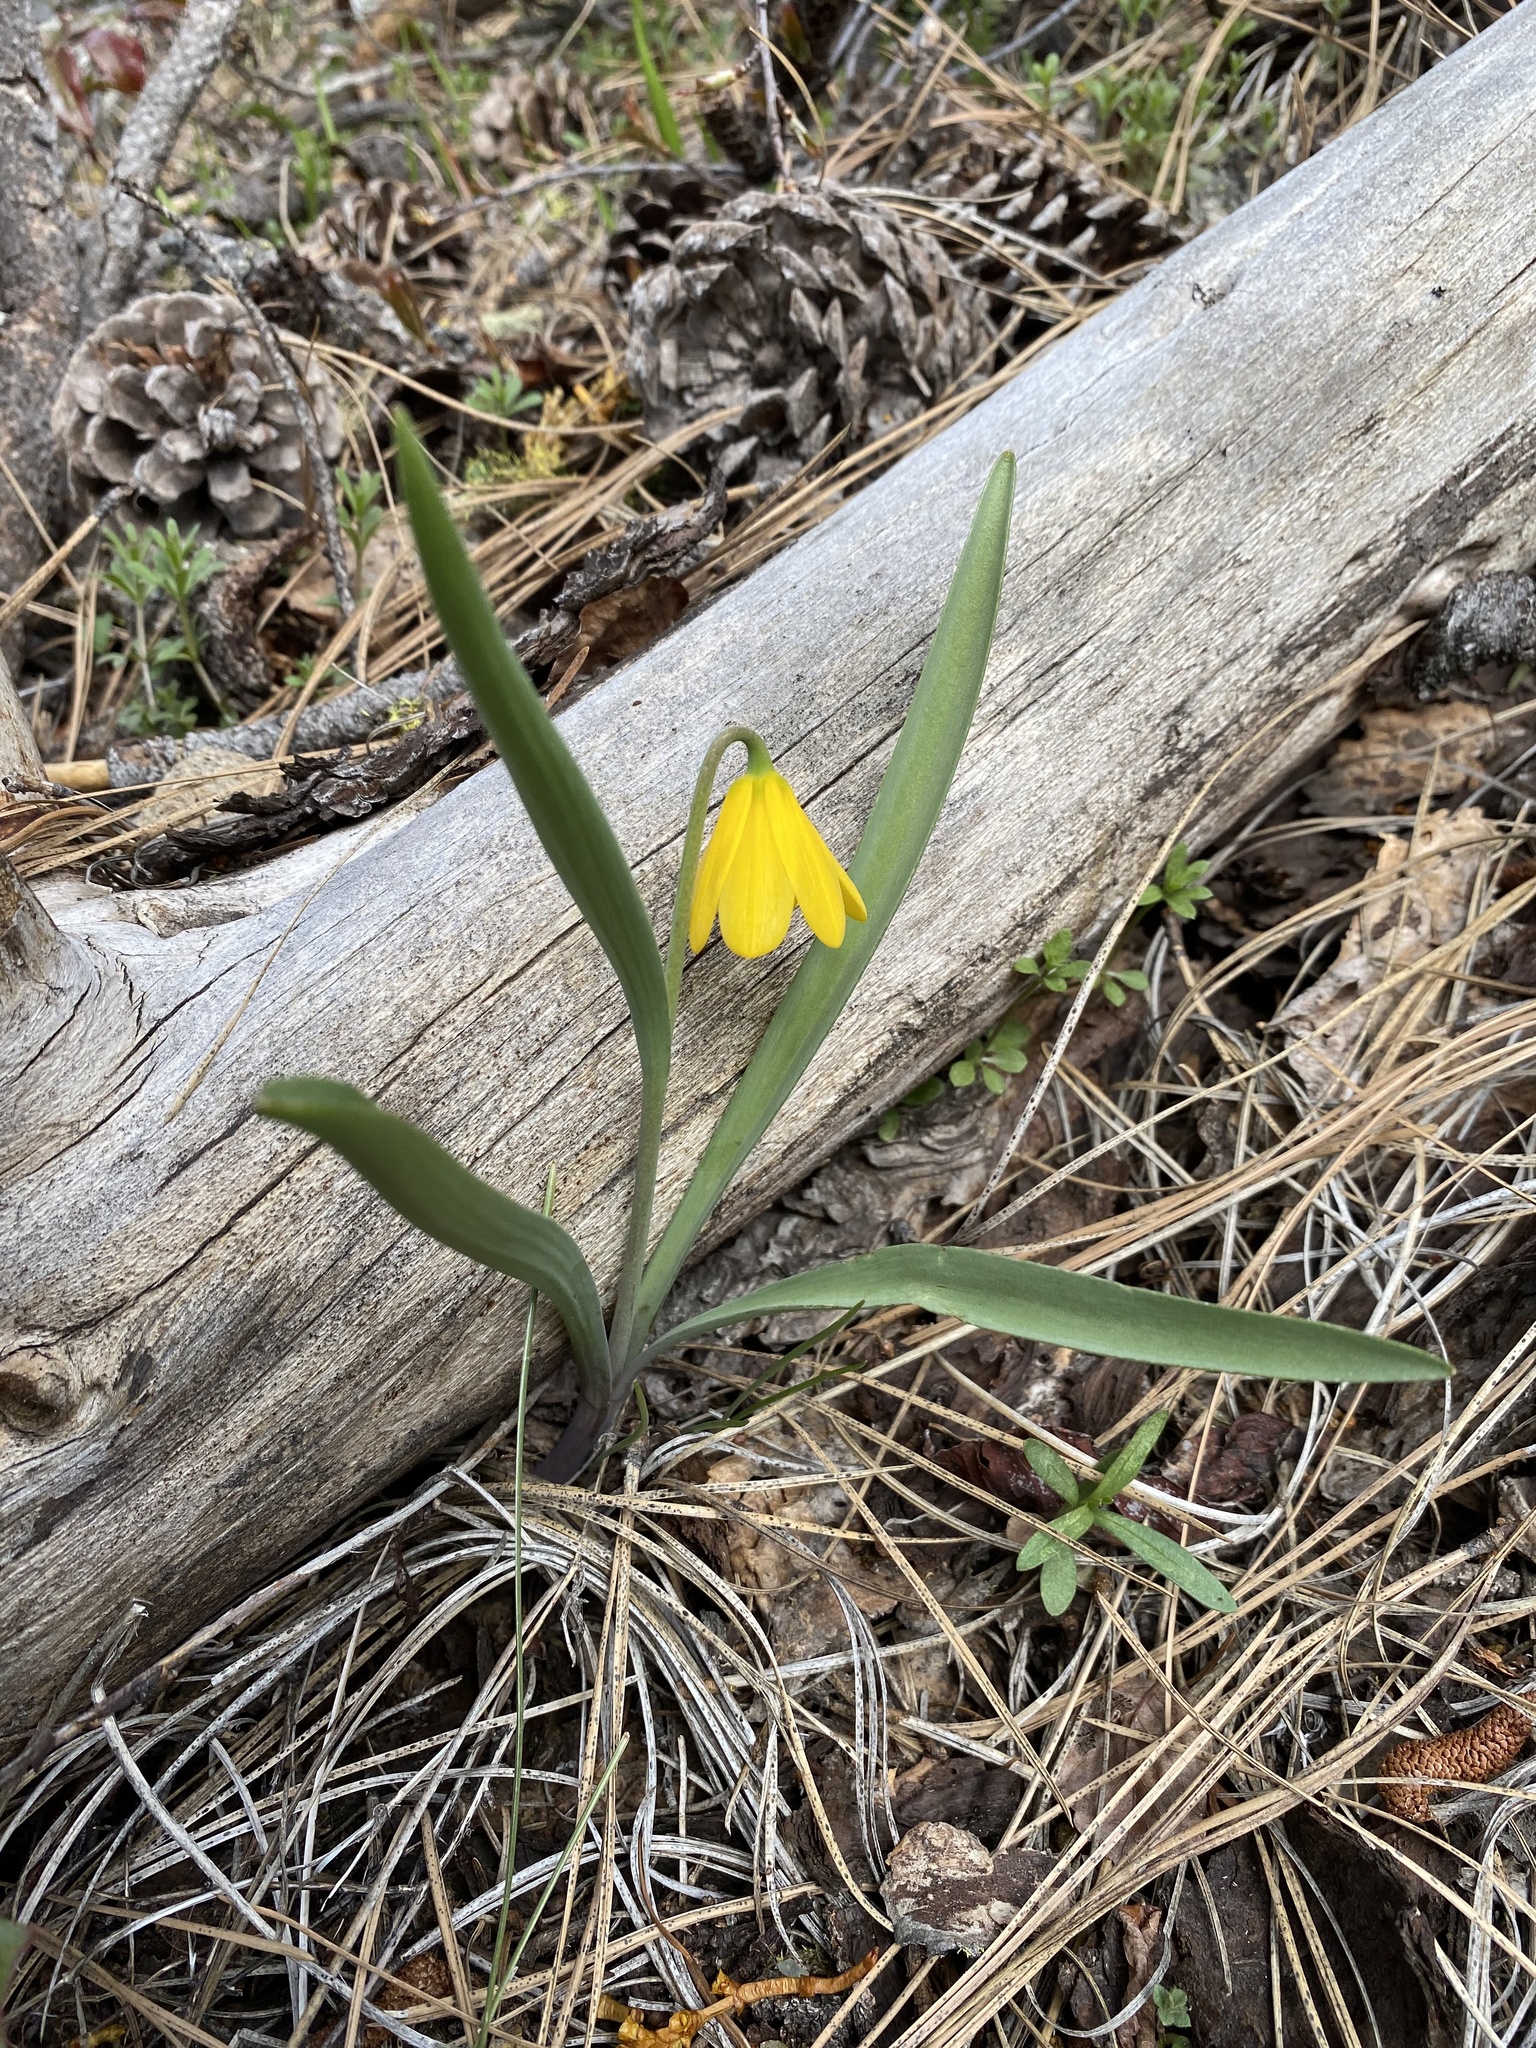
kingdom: Plantae
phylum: Tracheophyta
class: Liliopsida
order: Liliales
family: Liliaceae
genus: Fritillaria
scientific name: Fritillaria pudica
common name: Yellow fritillary
